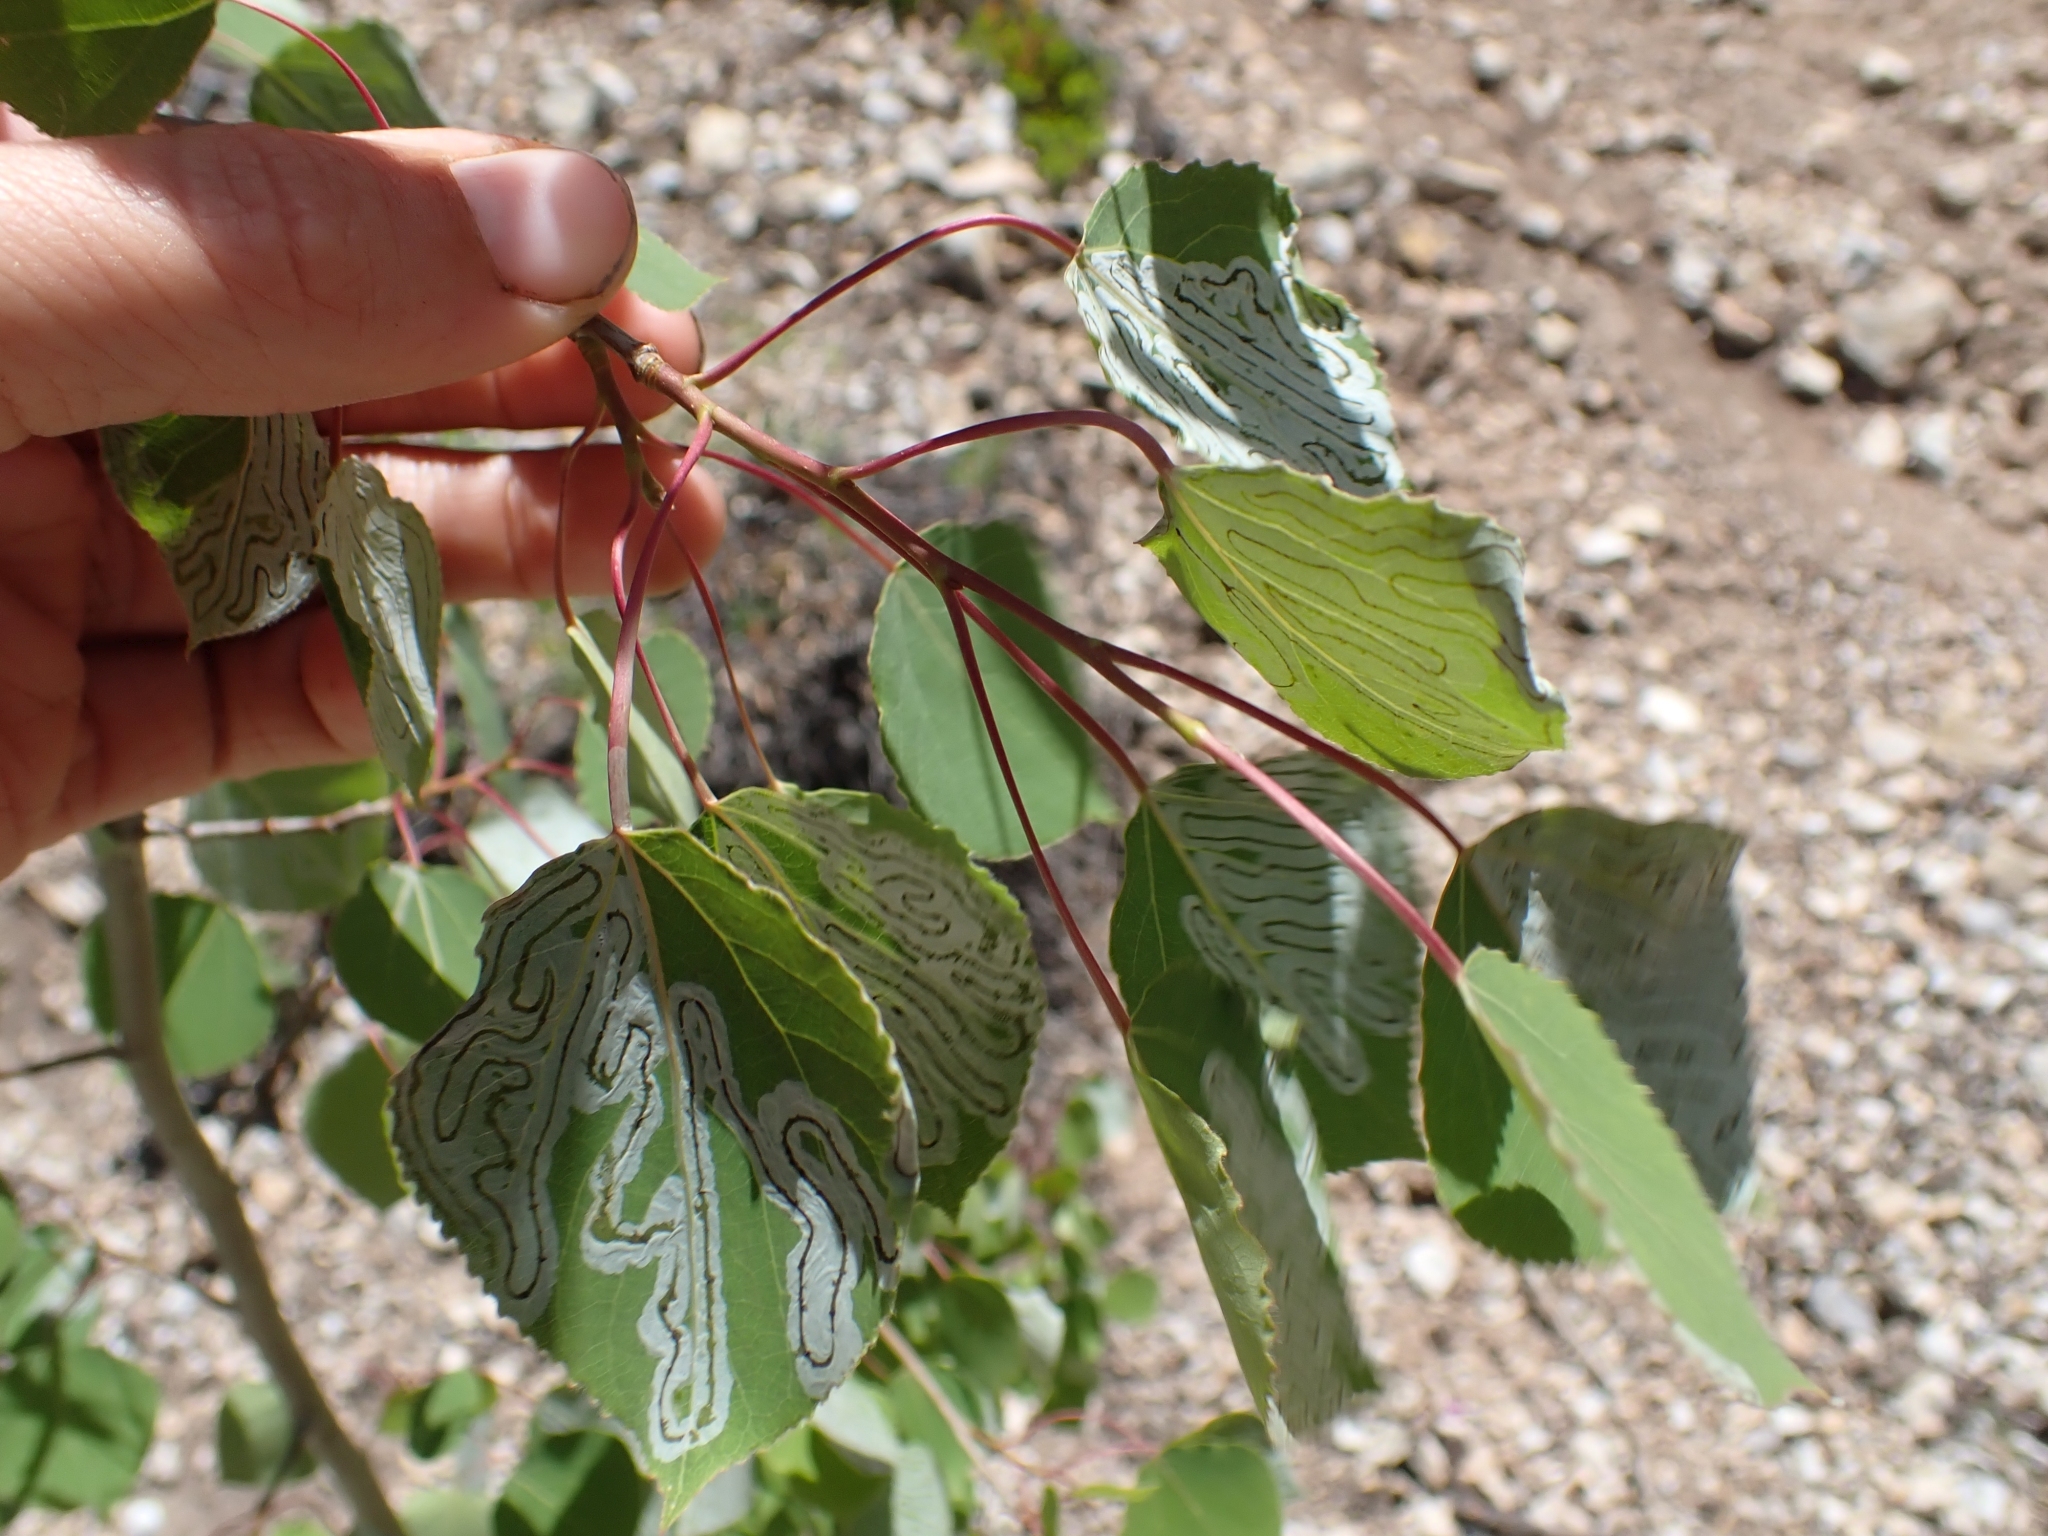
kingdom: Plantae
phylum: Tracheophyta
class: Magnoliopsida
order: Malpighiales
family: Salicaceae
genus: Populus
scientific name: Populus tremuloides
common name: Quaking aspen
